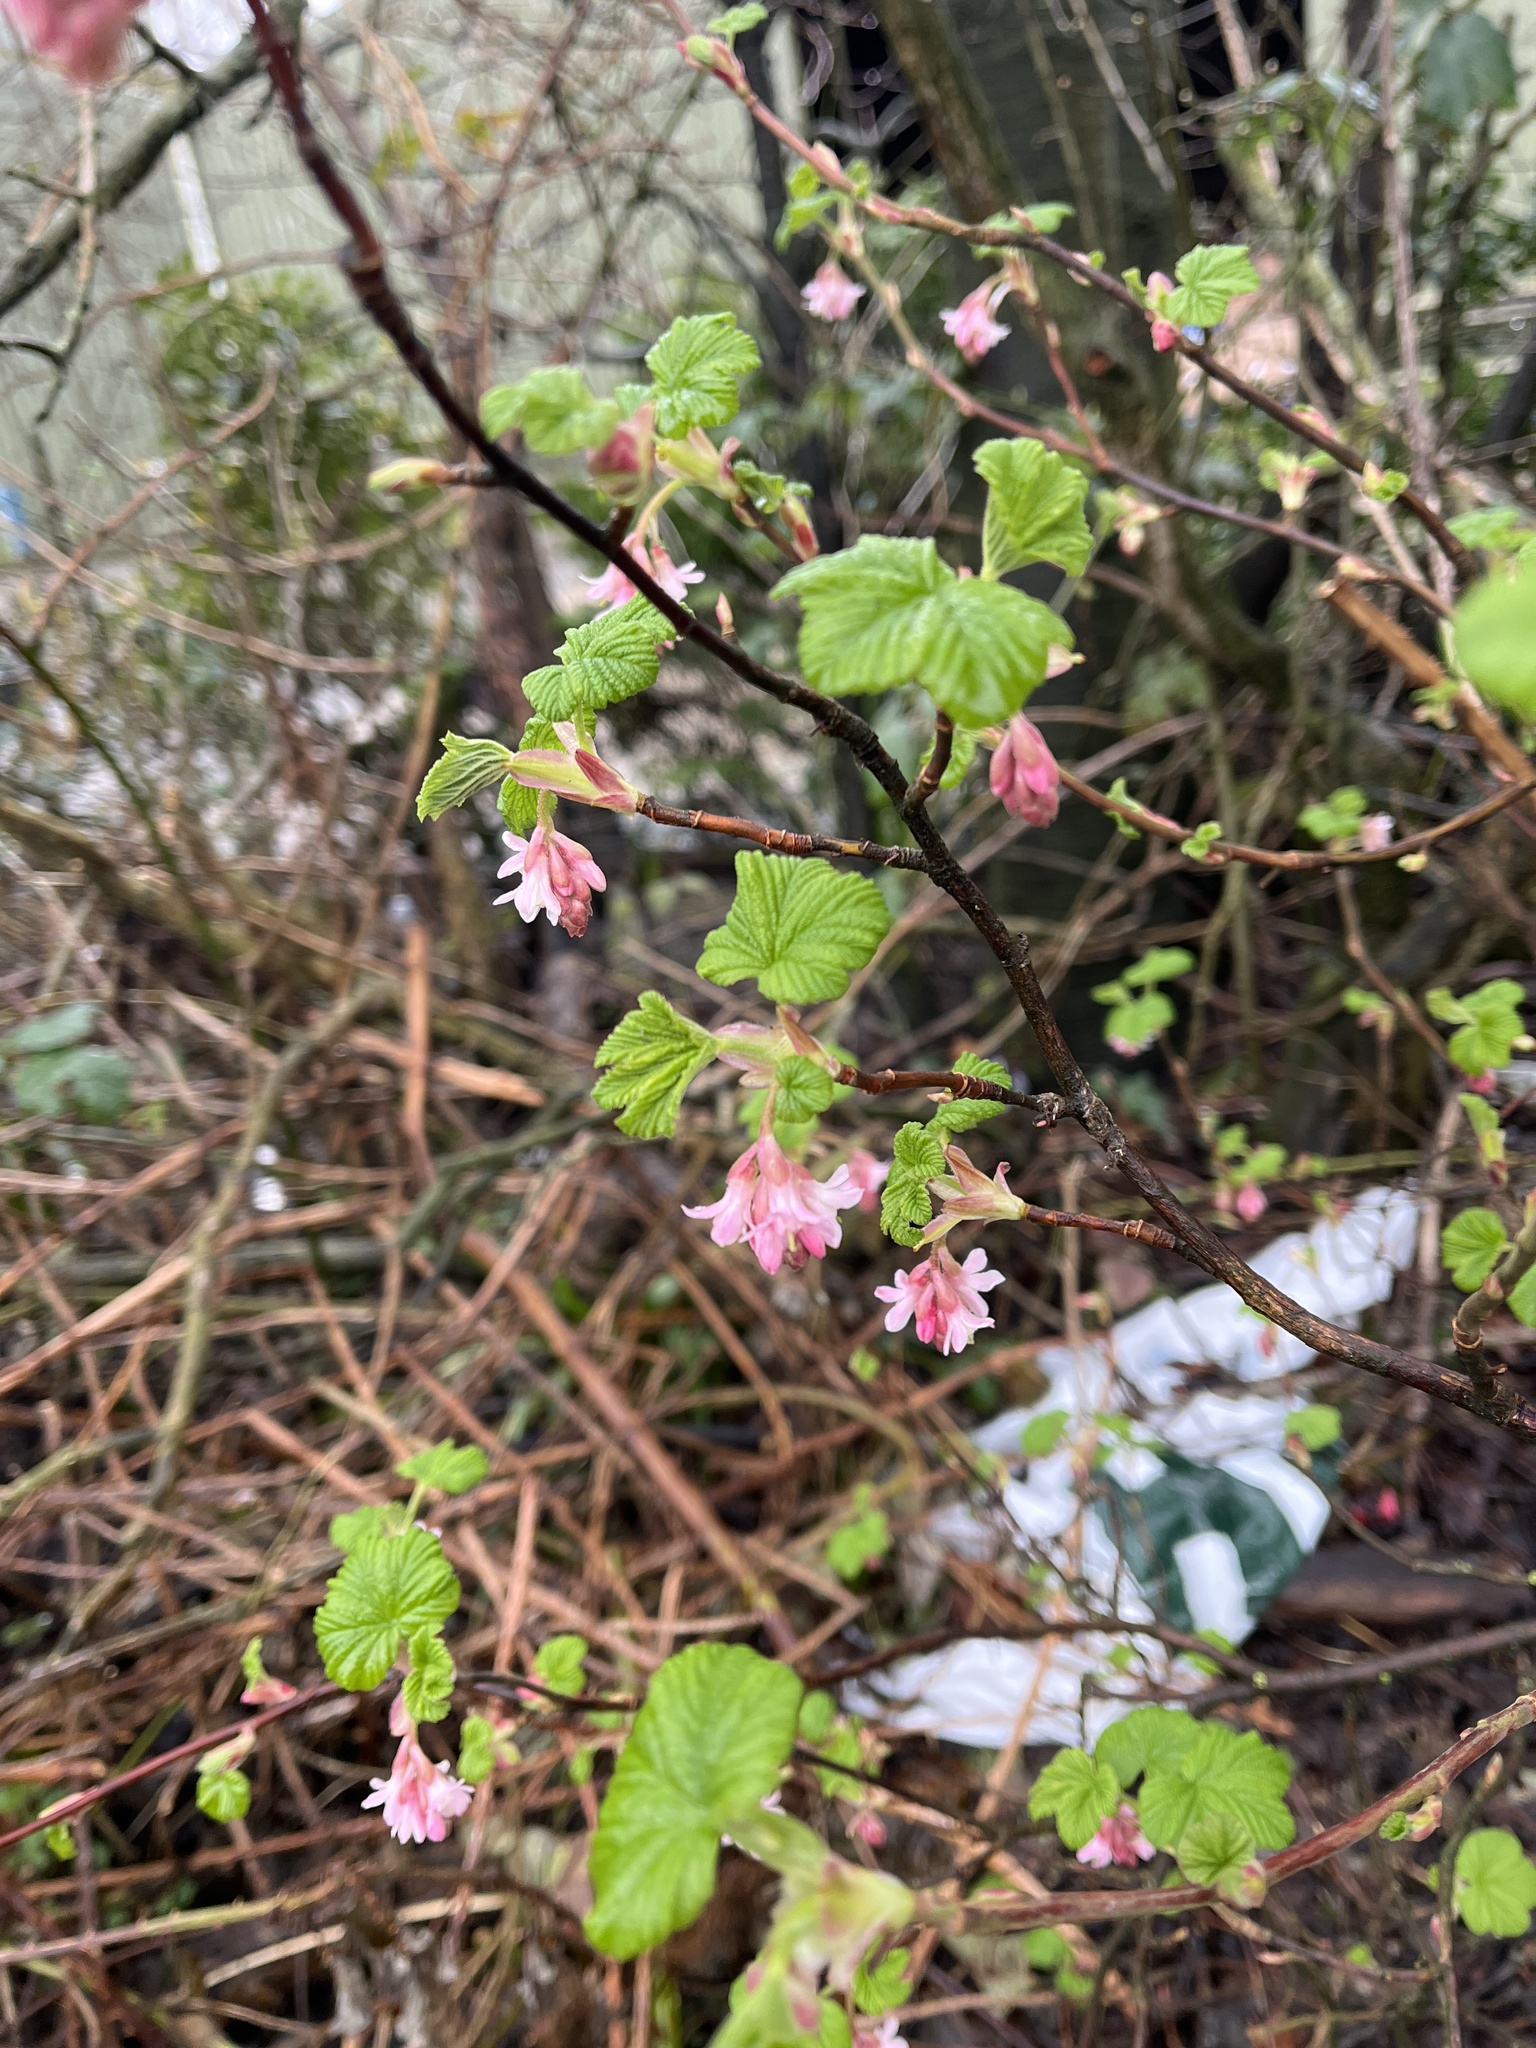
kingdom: Plantae
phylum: Tracheophyta
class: Magnoliopsida
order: Saxifragales
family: Grossulariaceae
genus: Ribes
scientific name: Ribes sanguineum
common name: Flowering currant
